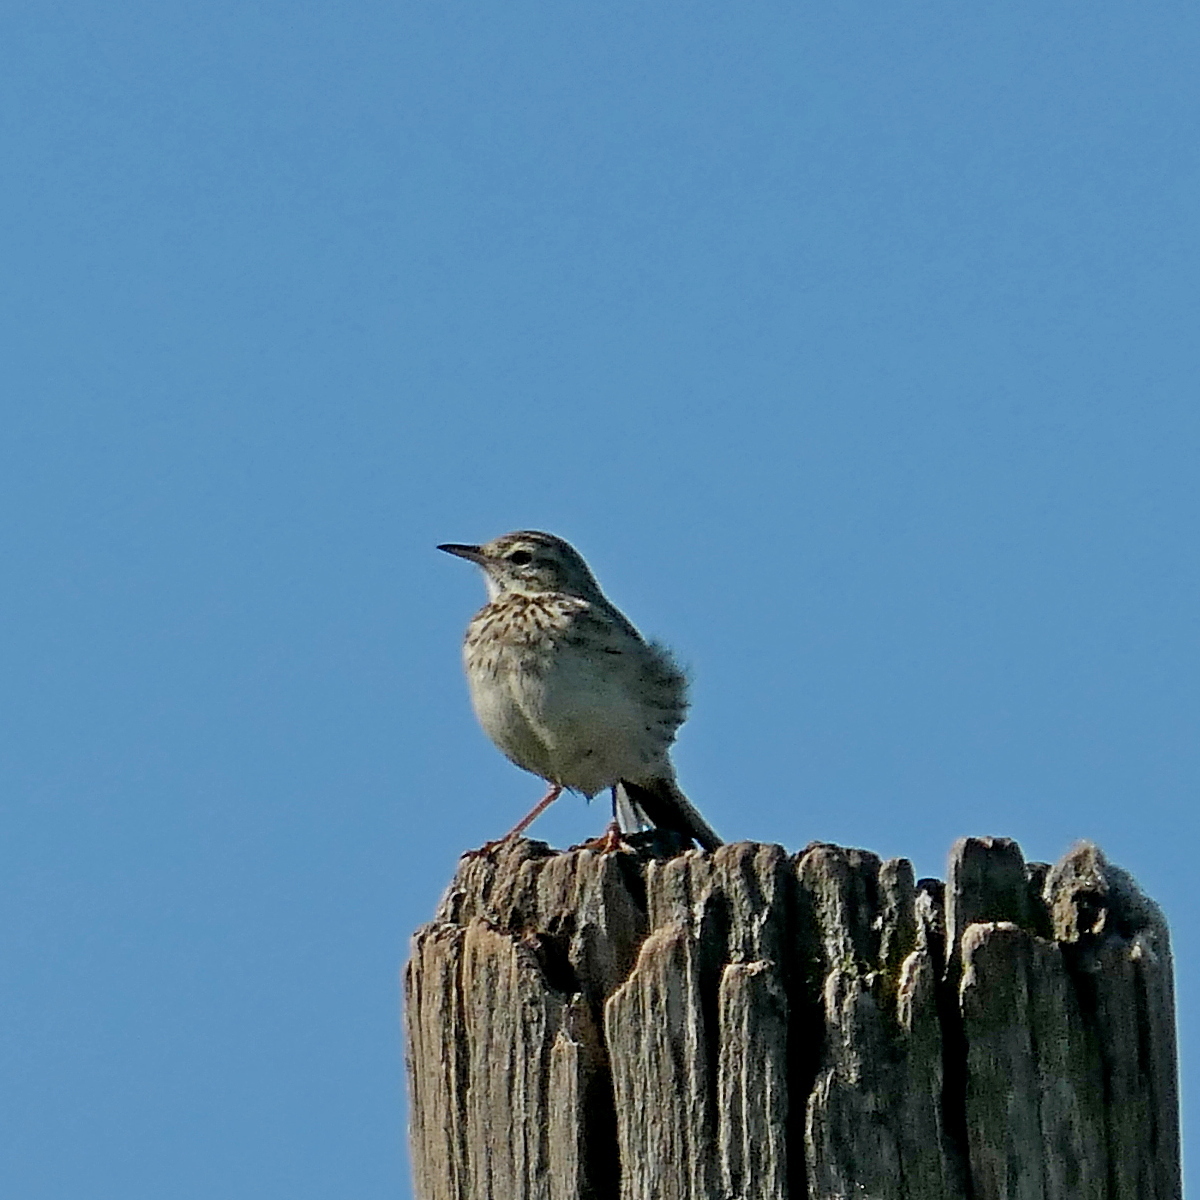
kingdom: Animalia
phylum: Chordata
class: Aves
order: Passeriformes
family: Motacillidae
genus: Anthus
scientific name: Anthus australis
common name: Australian pipit
